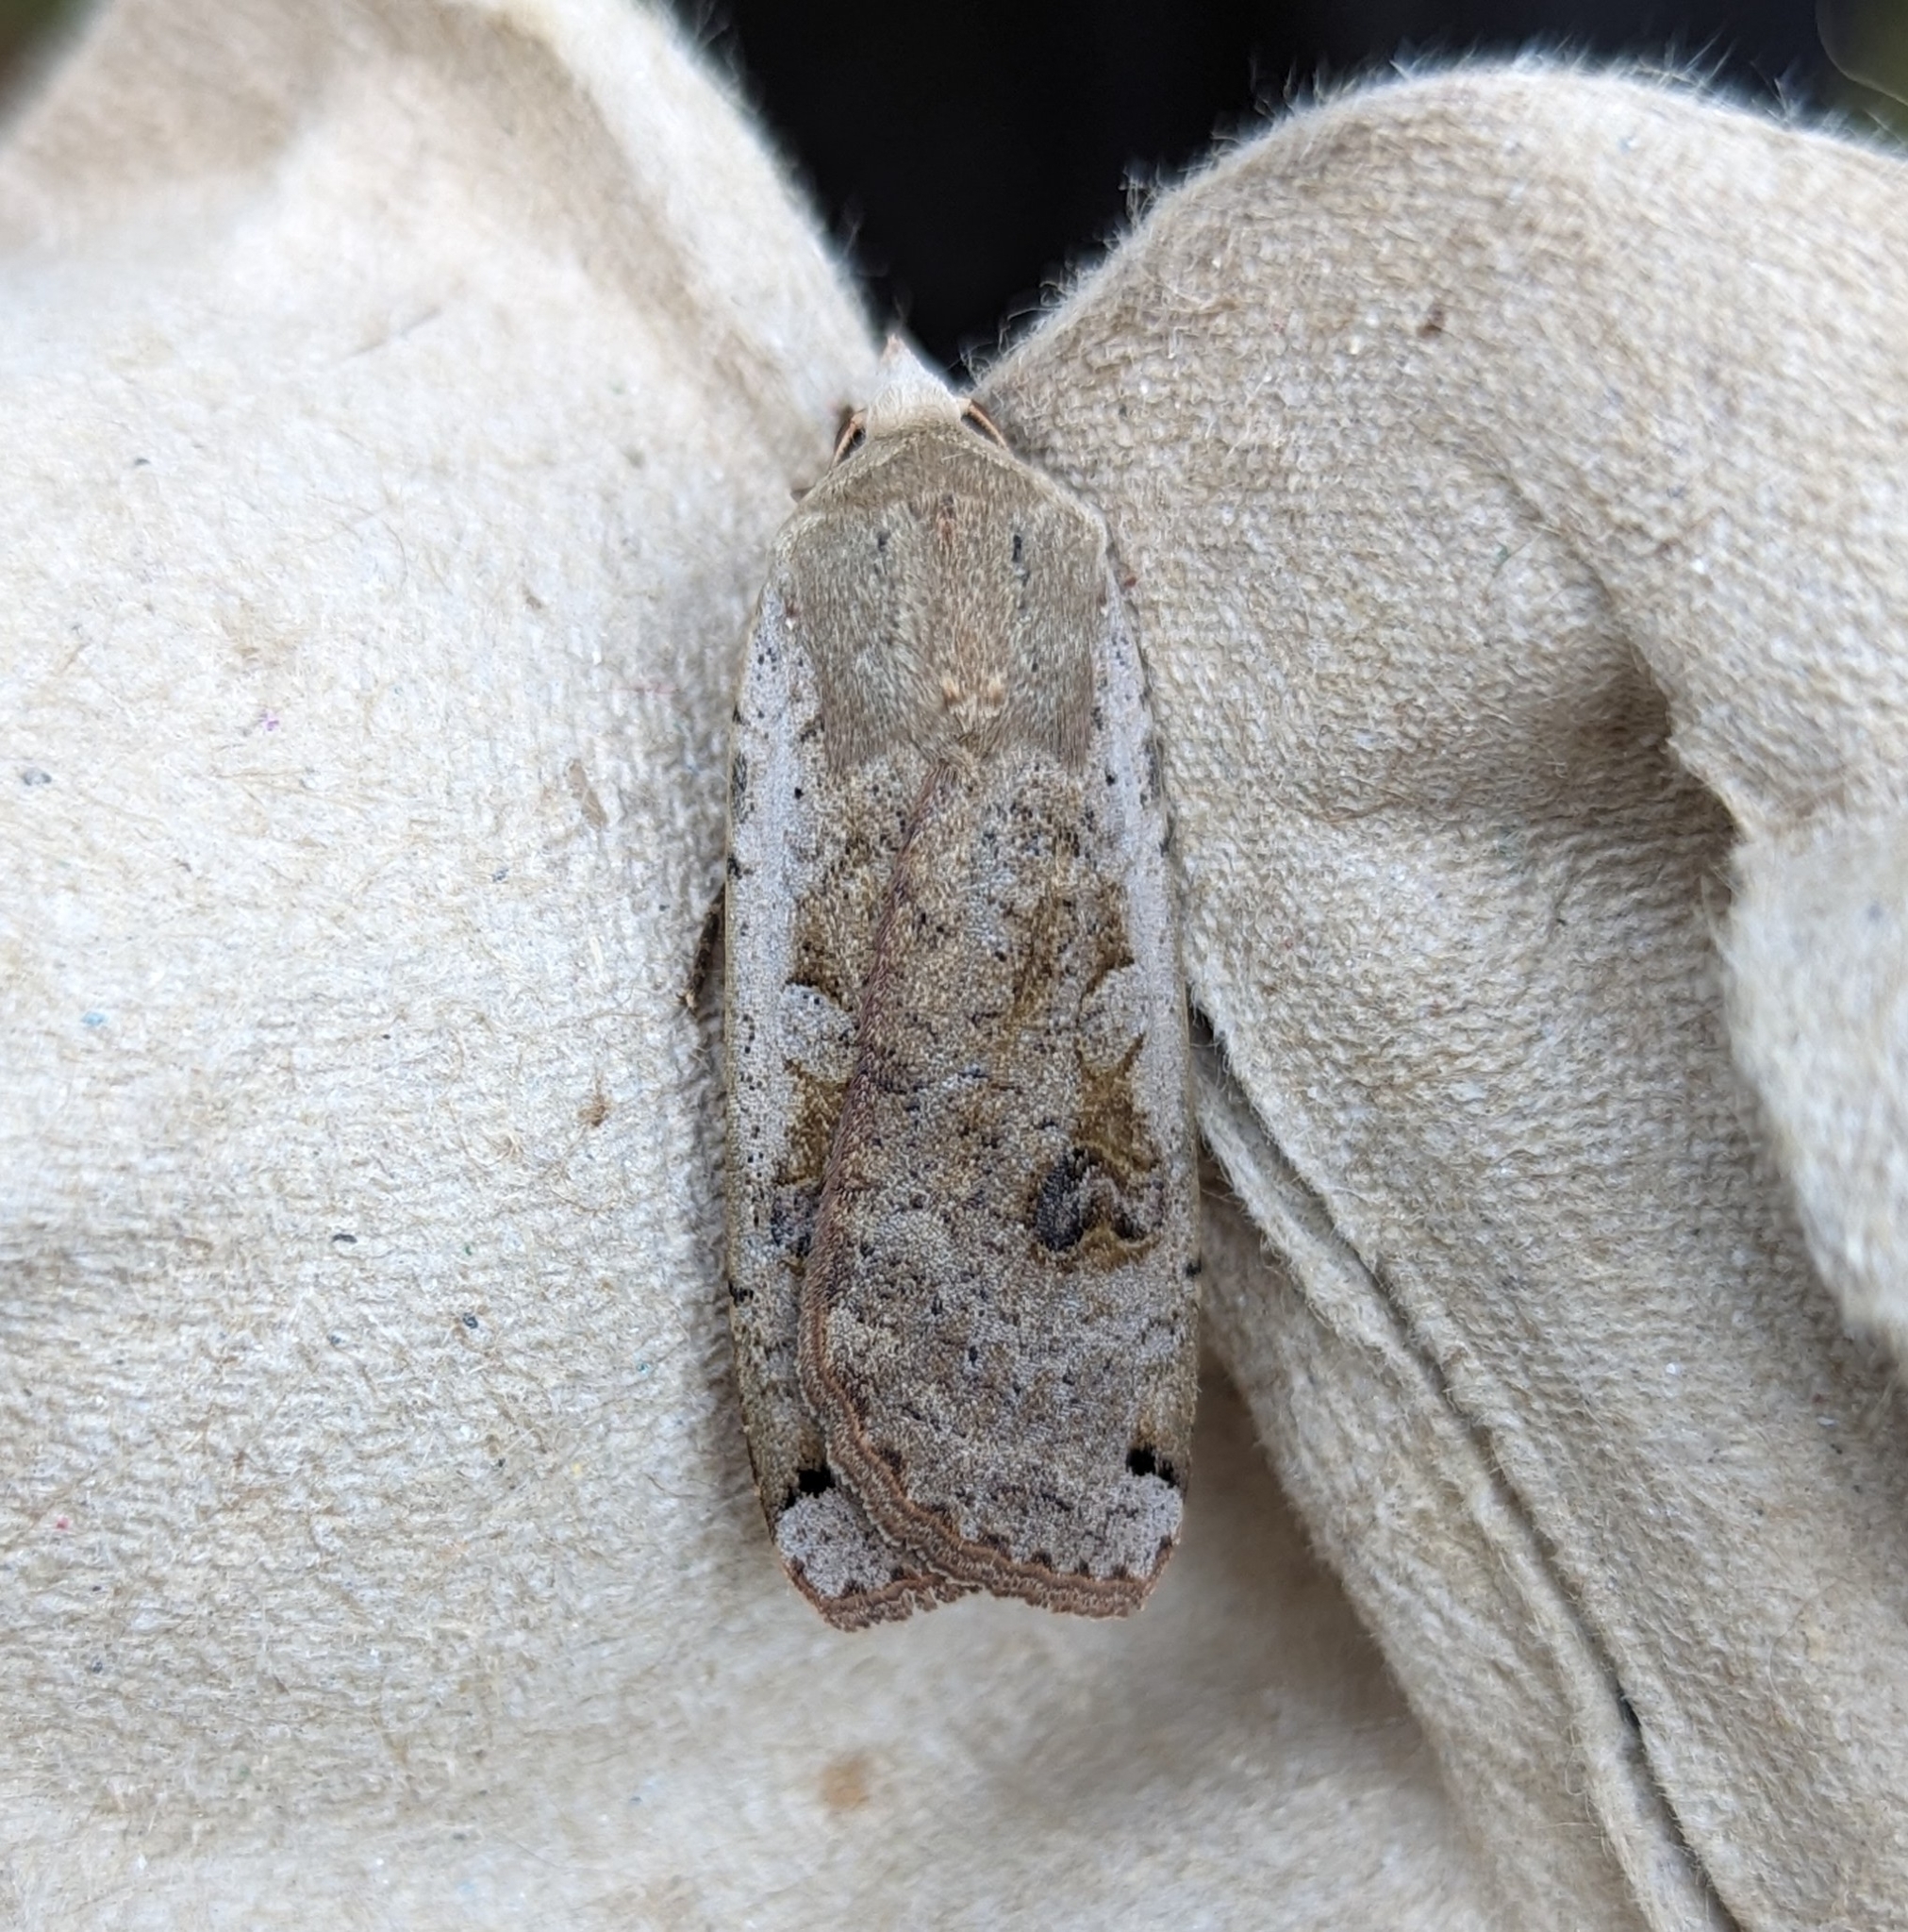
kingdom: Animalia
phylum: Arthropoda
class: Insecta
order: Lepidoptera
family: Noctuidae
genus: Noctua
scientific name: Noctua pronuba
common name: Large yellow underwing
